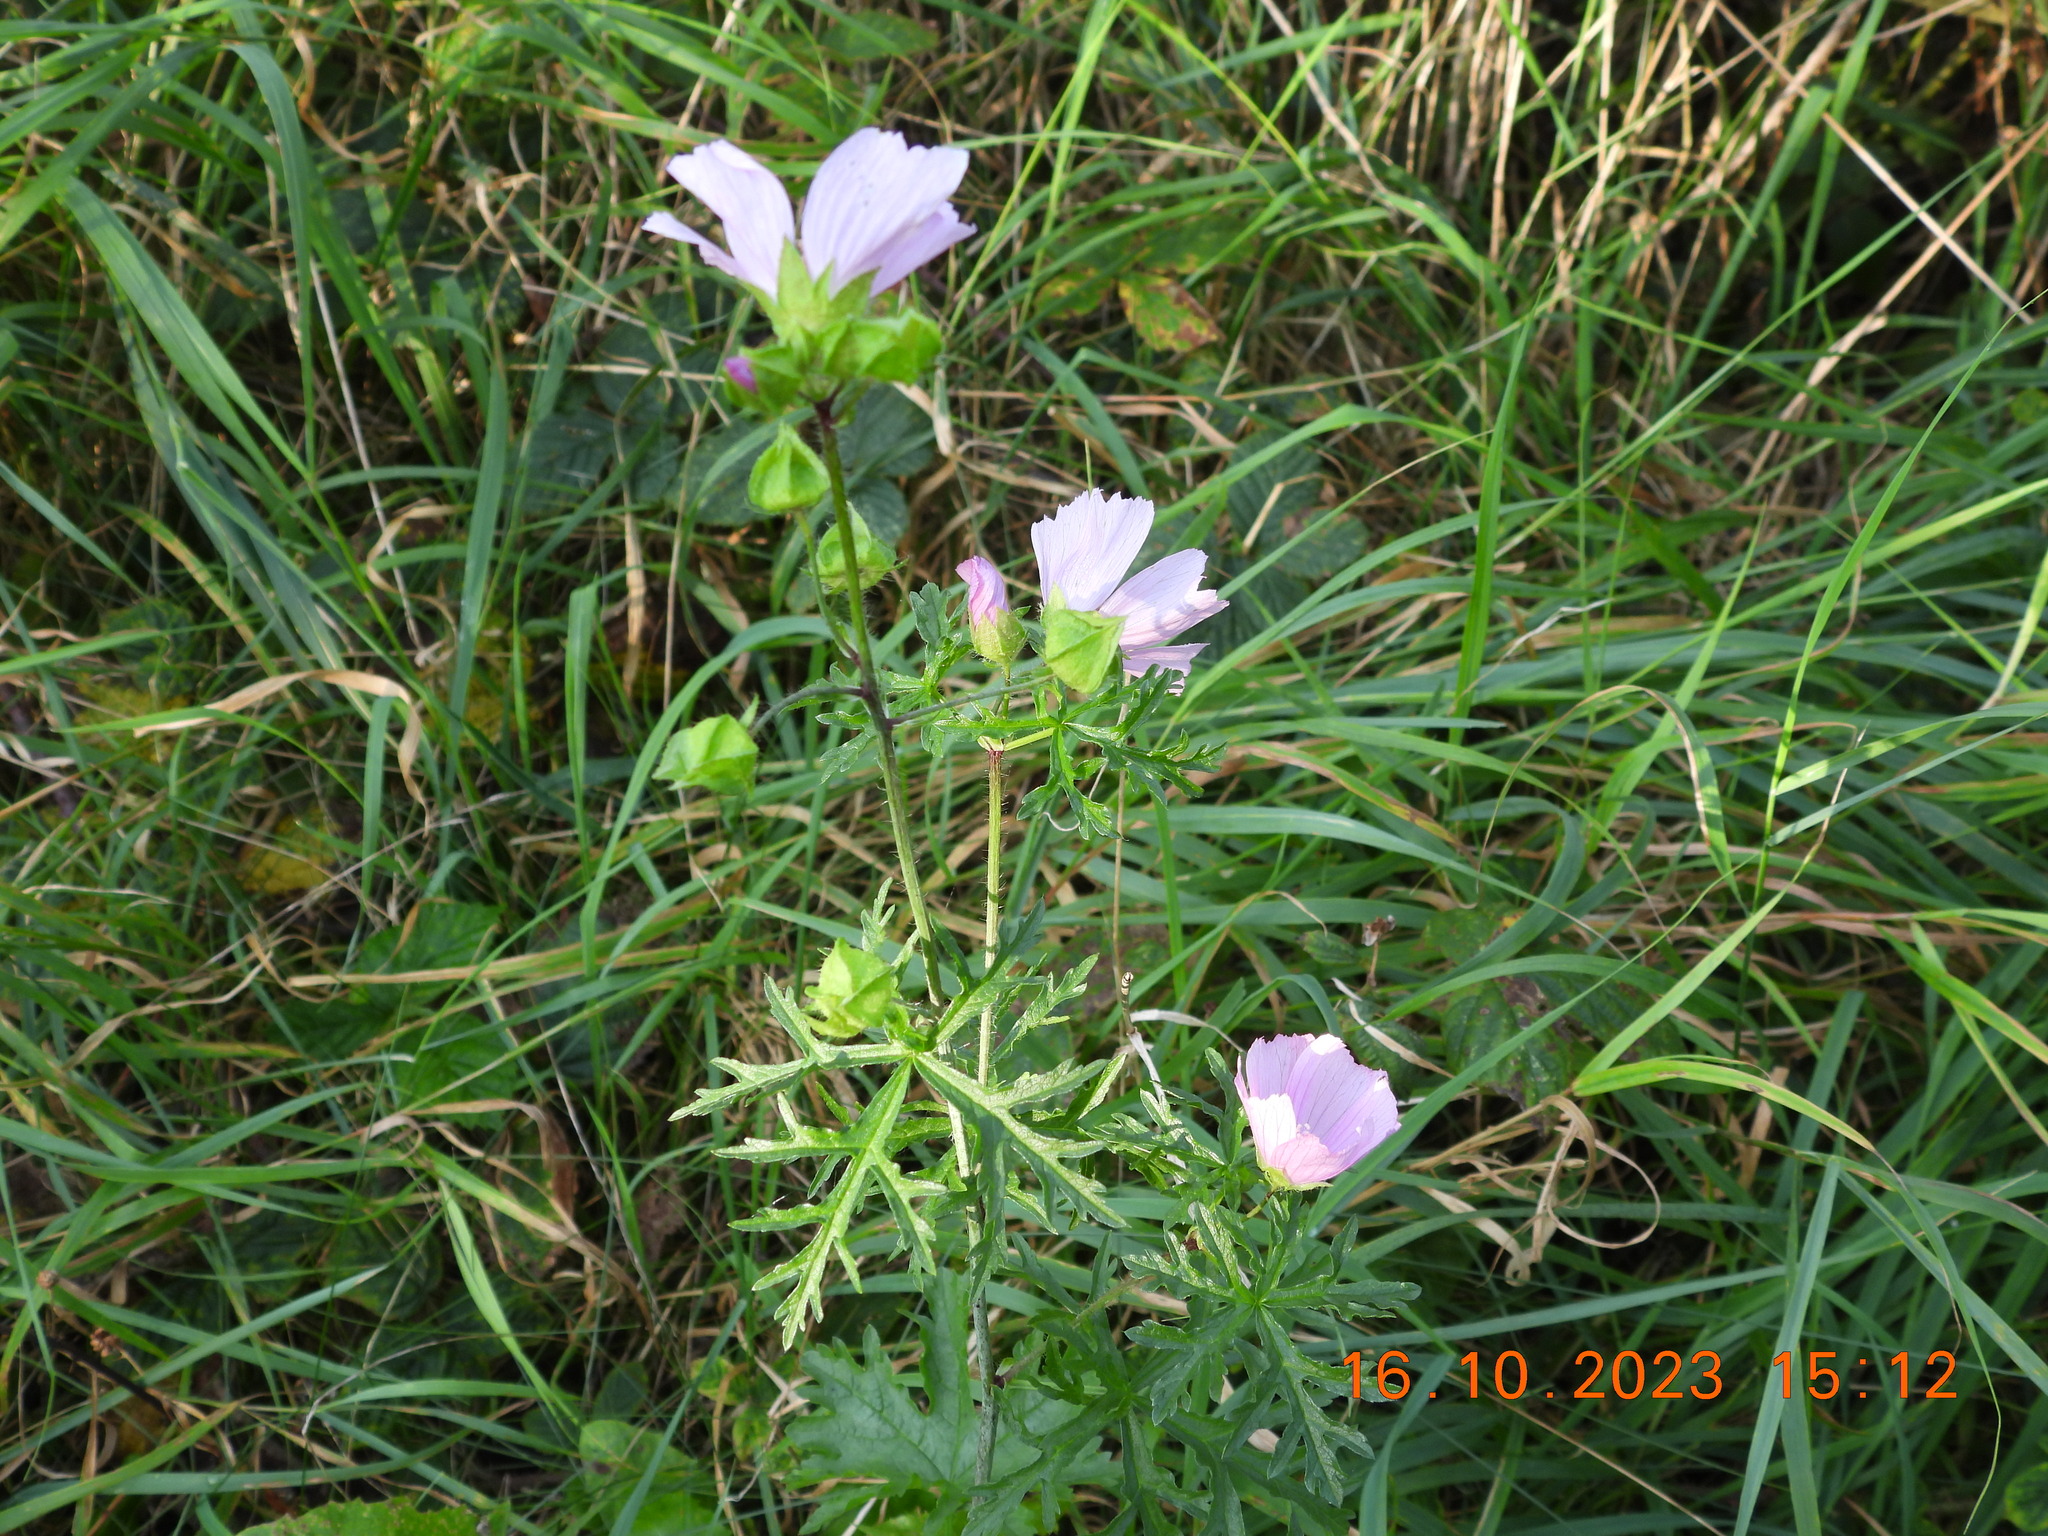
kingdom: Plantae
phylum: Tracheophyta
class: Magnoliopsida
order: Malvales
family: Malvaceae
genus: Malva
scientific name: Malva moschata
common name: Musk mallow
